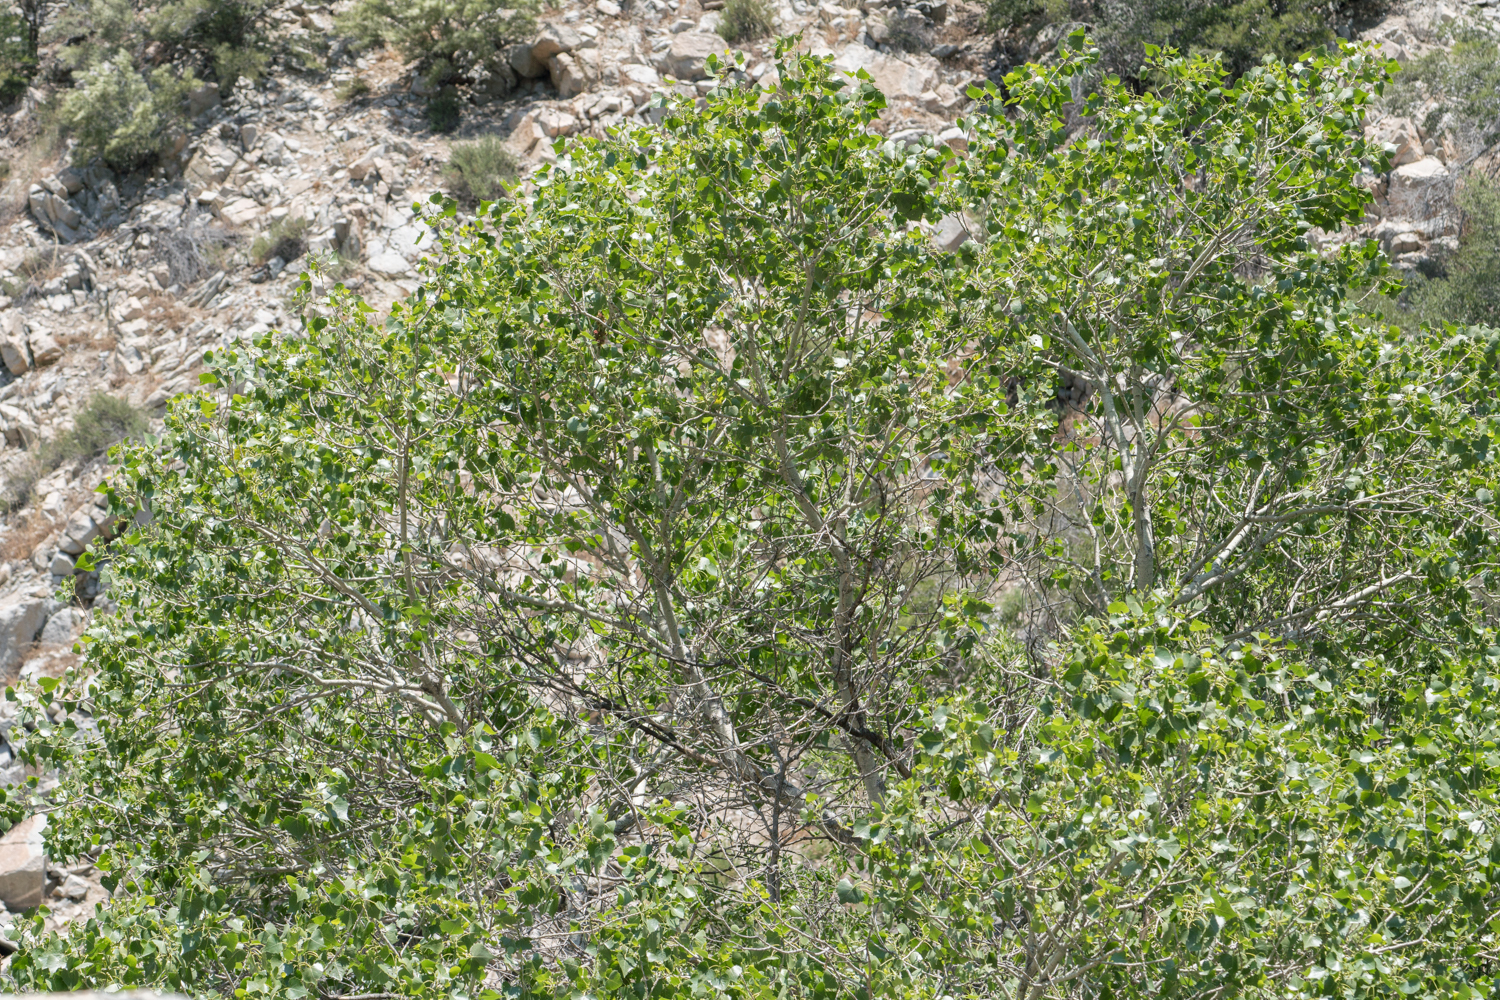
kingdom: Plantae
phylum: Tracheophyta
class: Magnoliopsida
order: Malpighiales
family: Salicaceae
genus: Populus
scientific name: Populus fremontii
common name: Fremont's cottonwood
